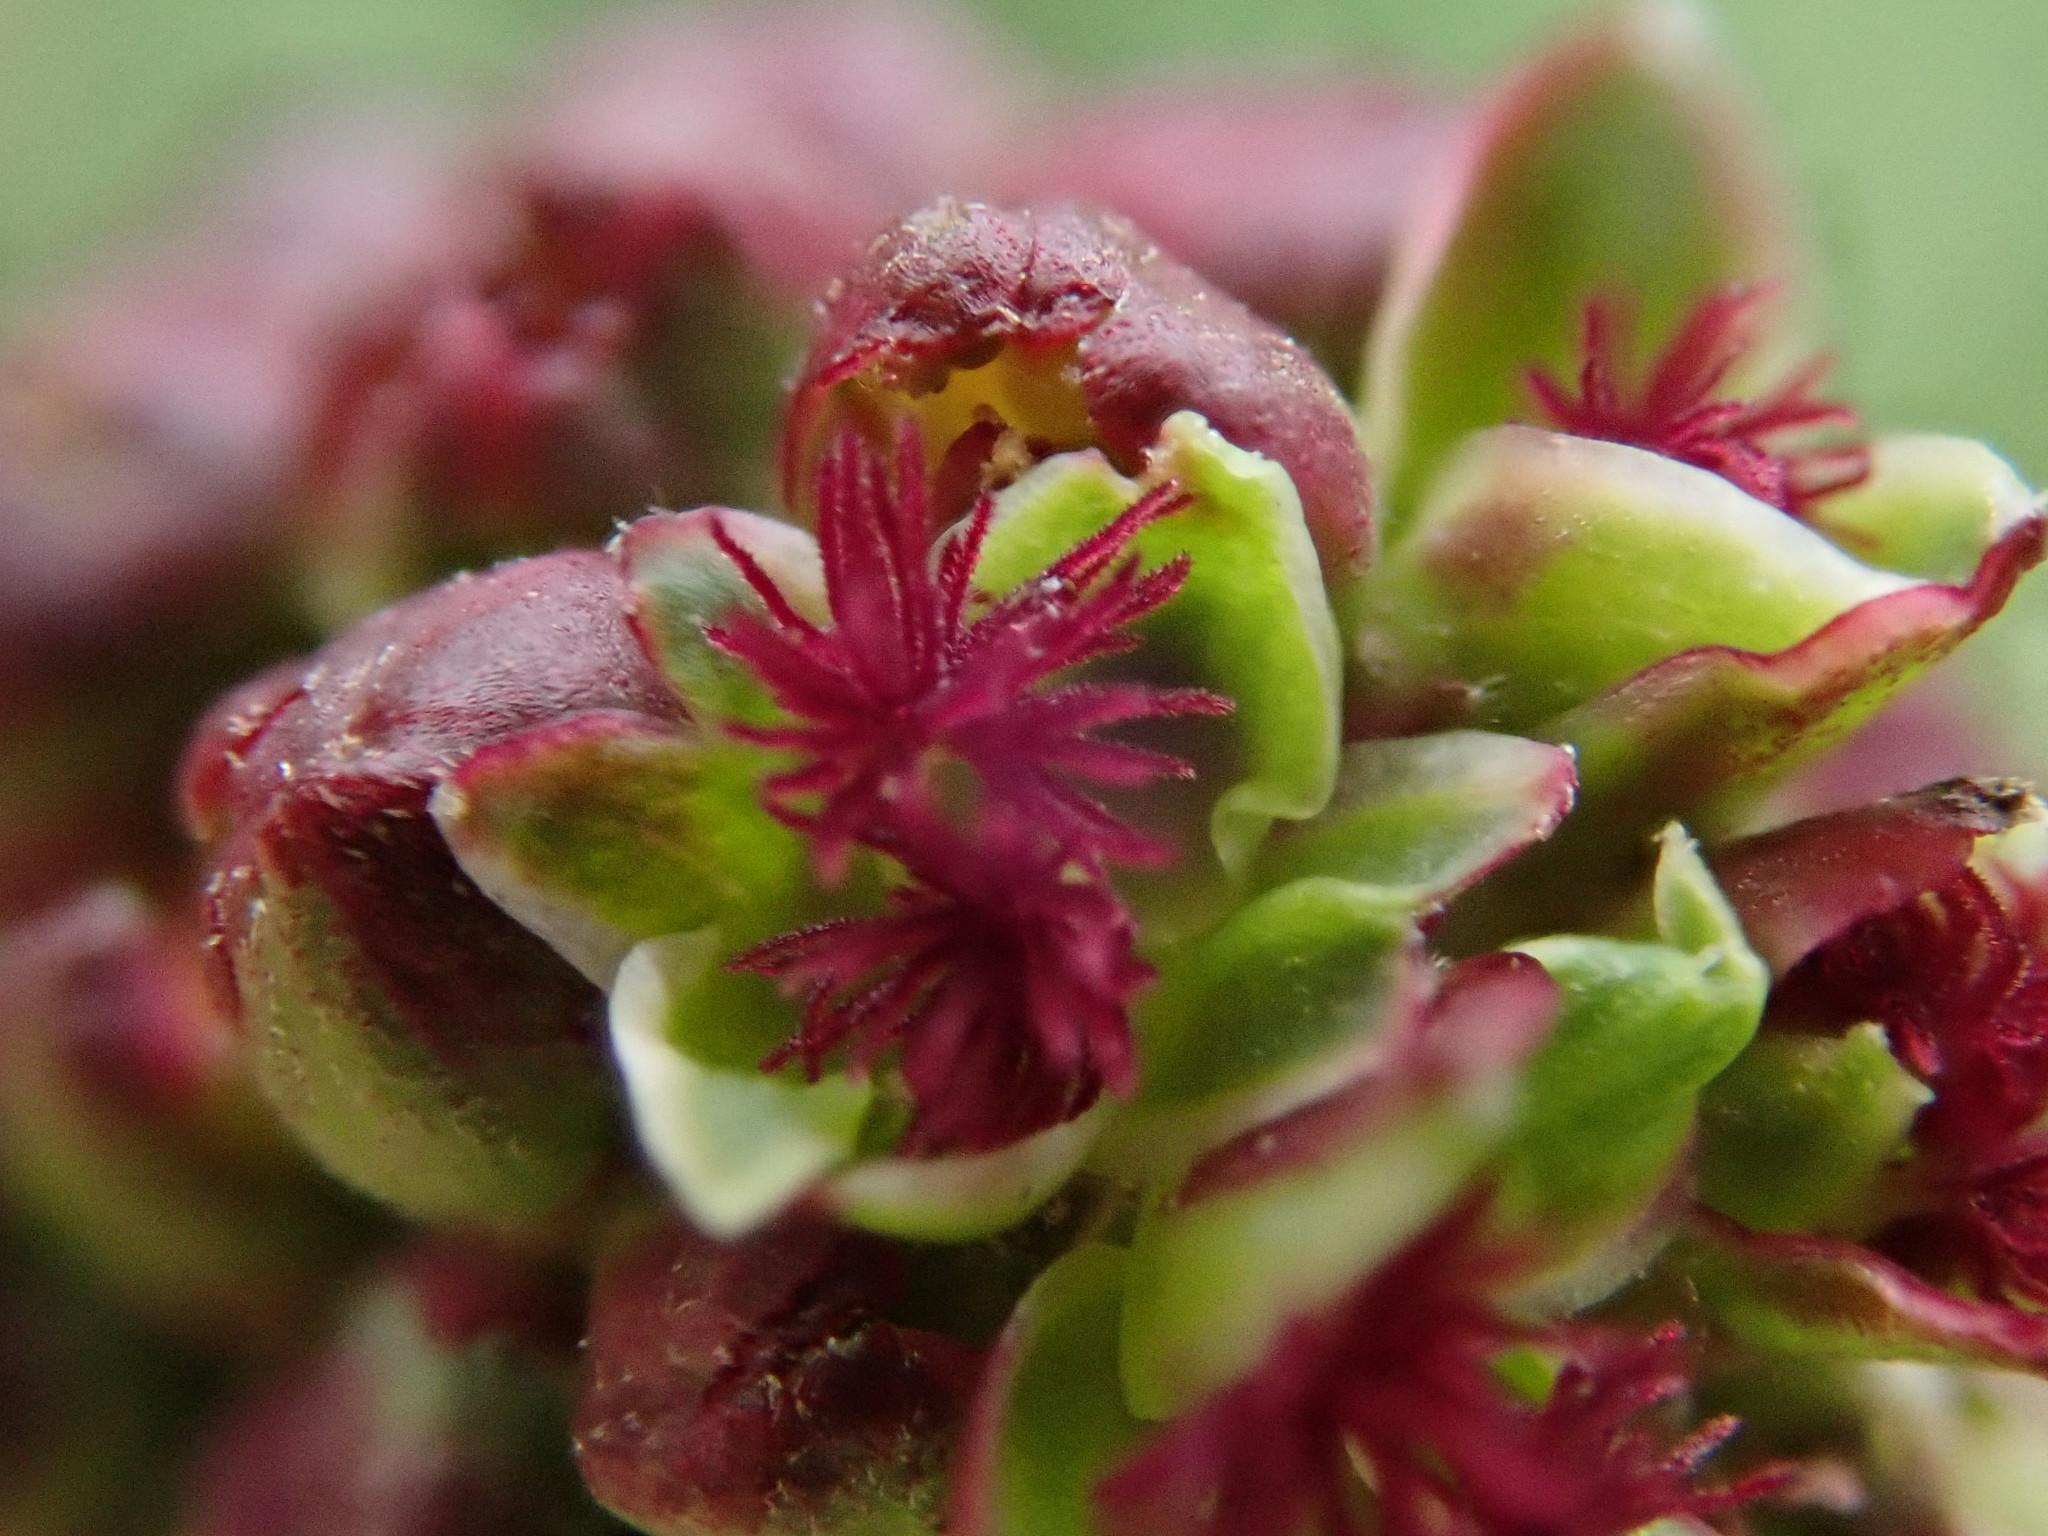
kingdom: Plantae
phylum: Tracheophyta
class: Magnoliopsida
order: Rosales
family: Rosaceae
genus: Poterium
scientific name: Poterium sanguisorba
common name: Salad burnet
